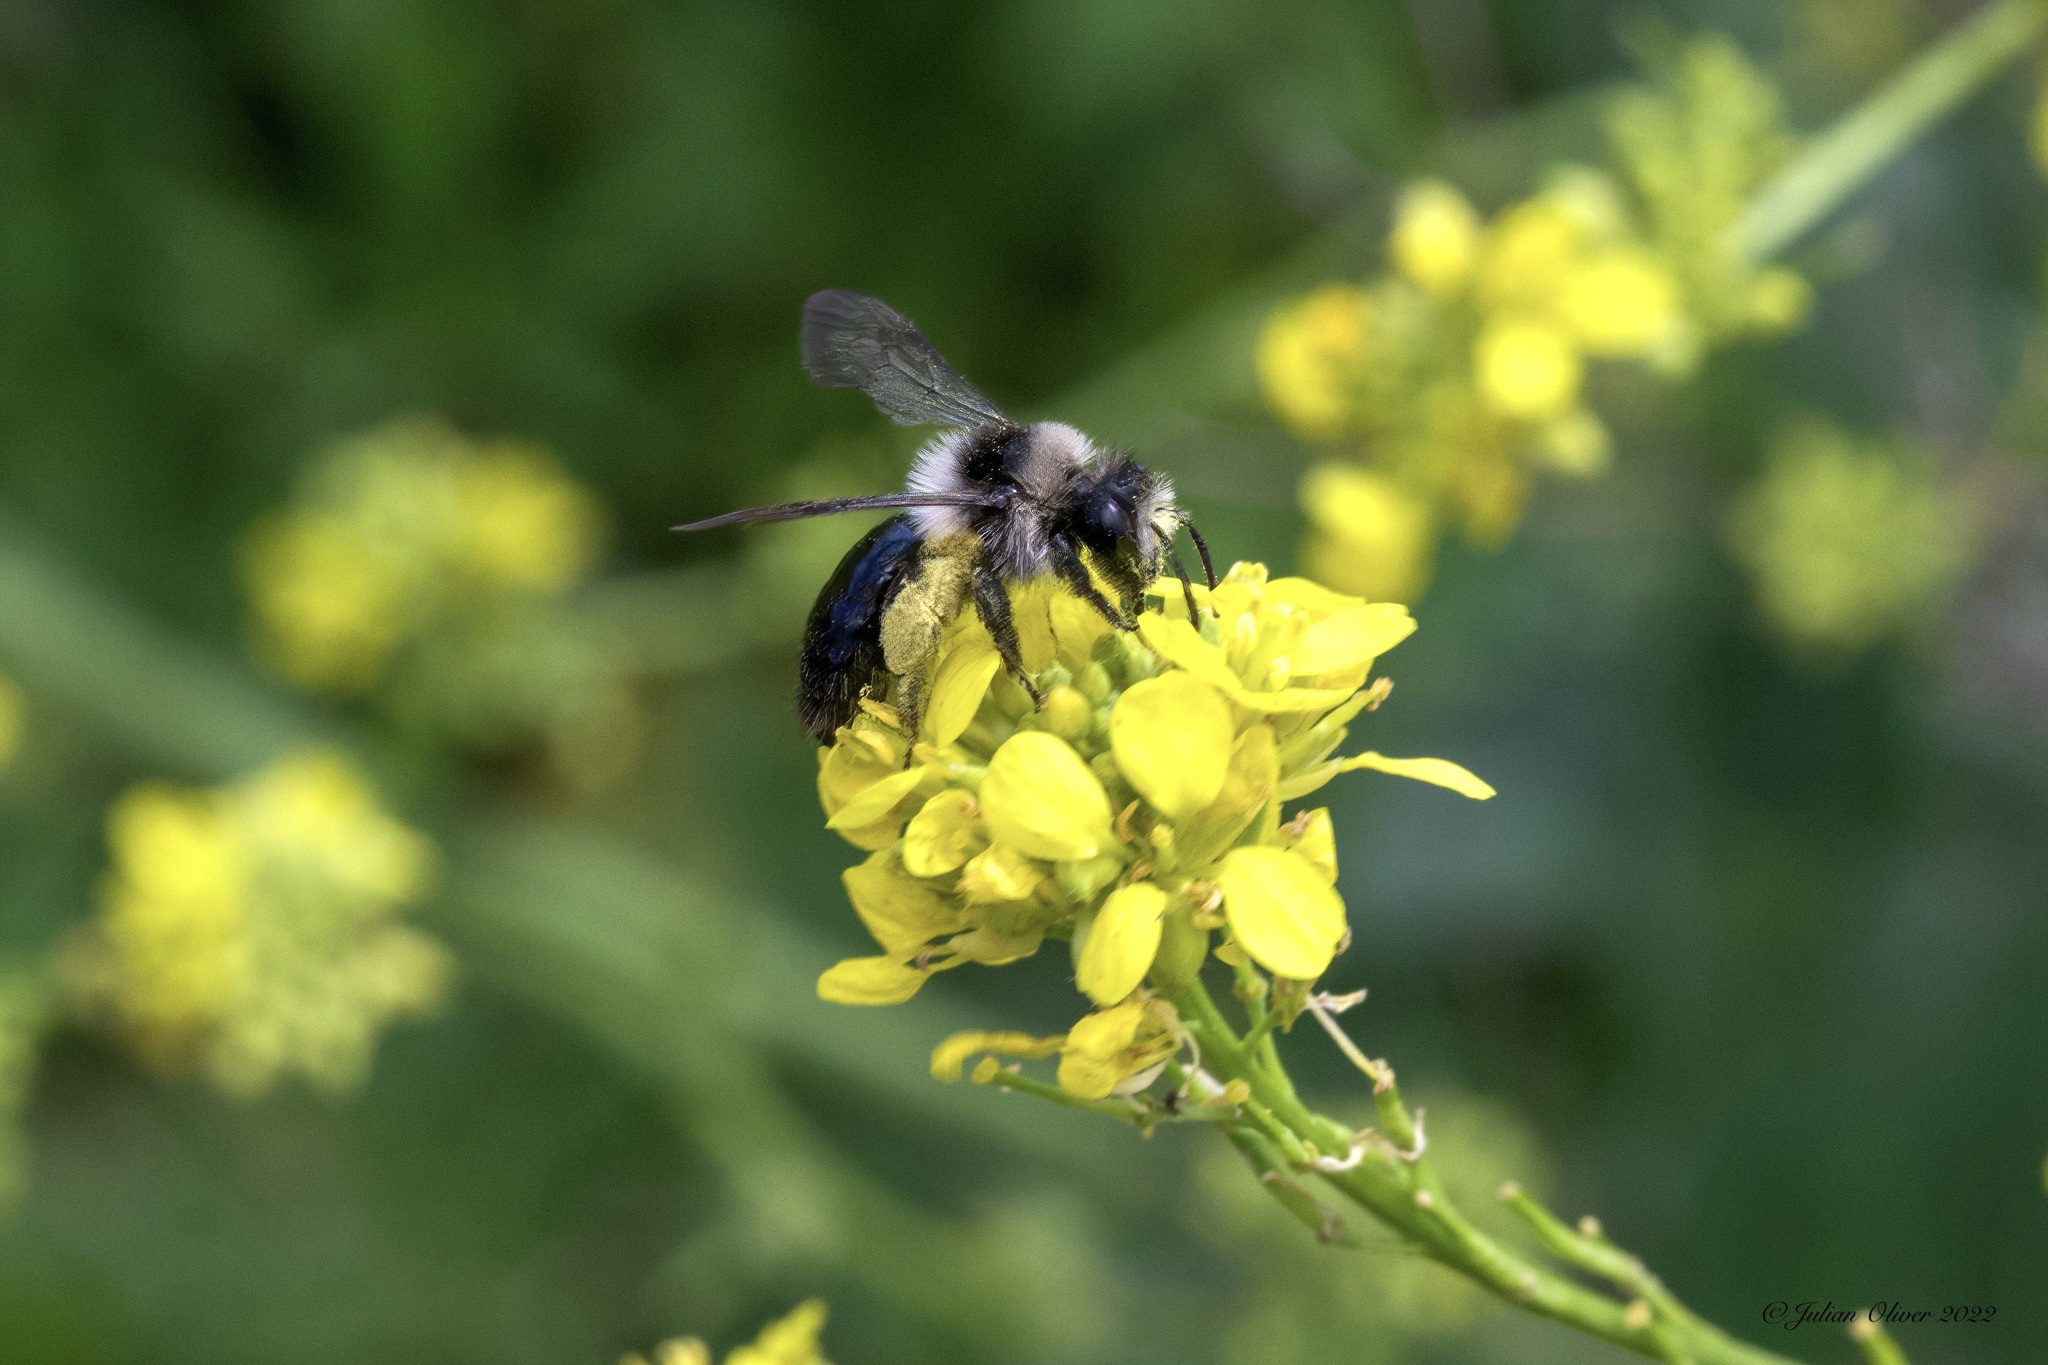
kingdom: Animalia
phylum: Arthropoda
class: Insecta
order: Hymenoptera
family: Andrenidae
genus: Andrena
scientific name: Andrena cineraria
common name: Ashy mining bee
